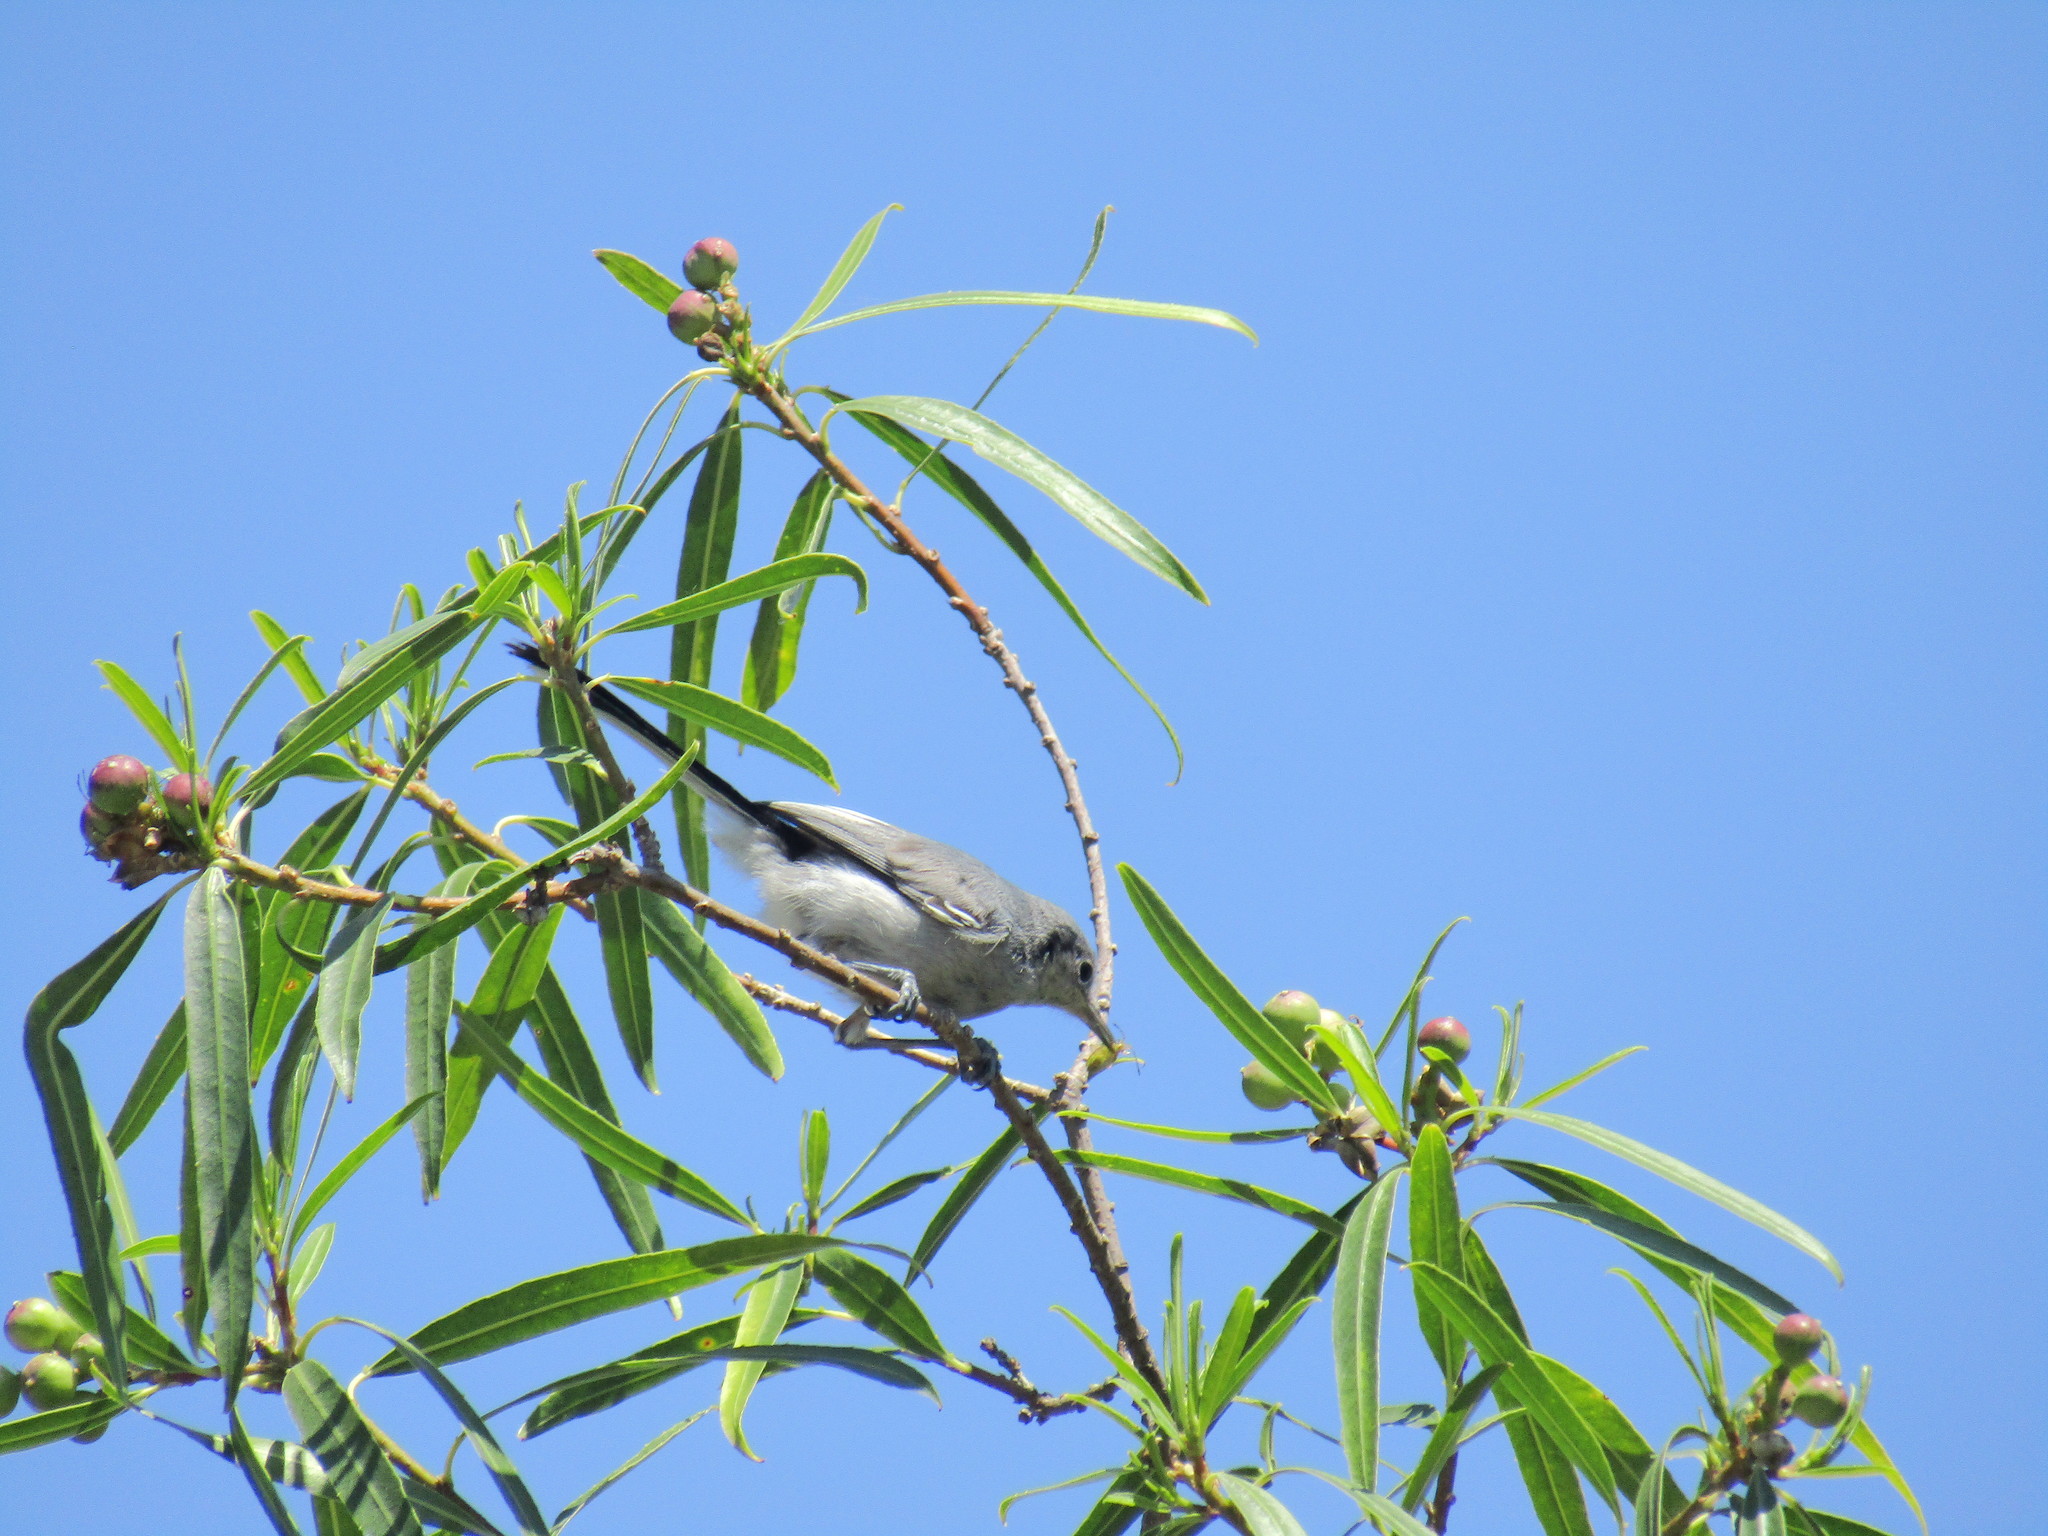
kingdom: Animalia
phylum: Chordata
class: Aves
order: Passeriformes
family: Polioptilidae
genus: Polioptila
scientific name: Polioptila dumicola
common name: Masked gnatcatcher
